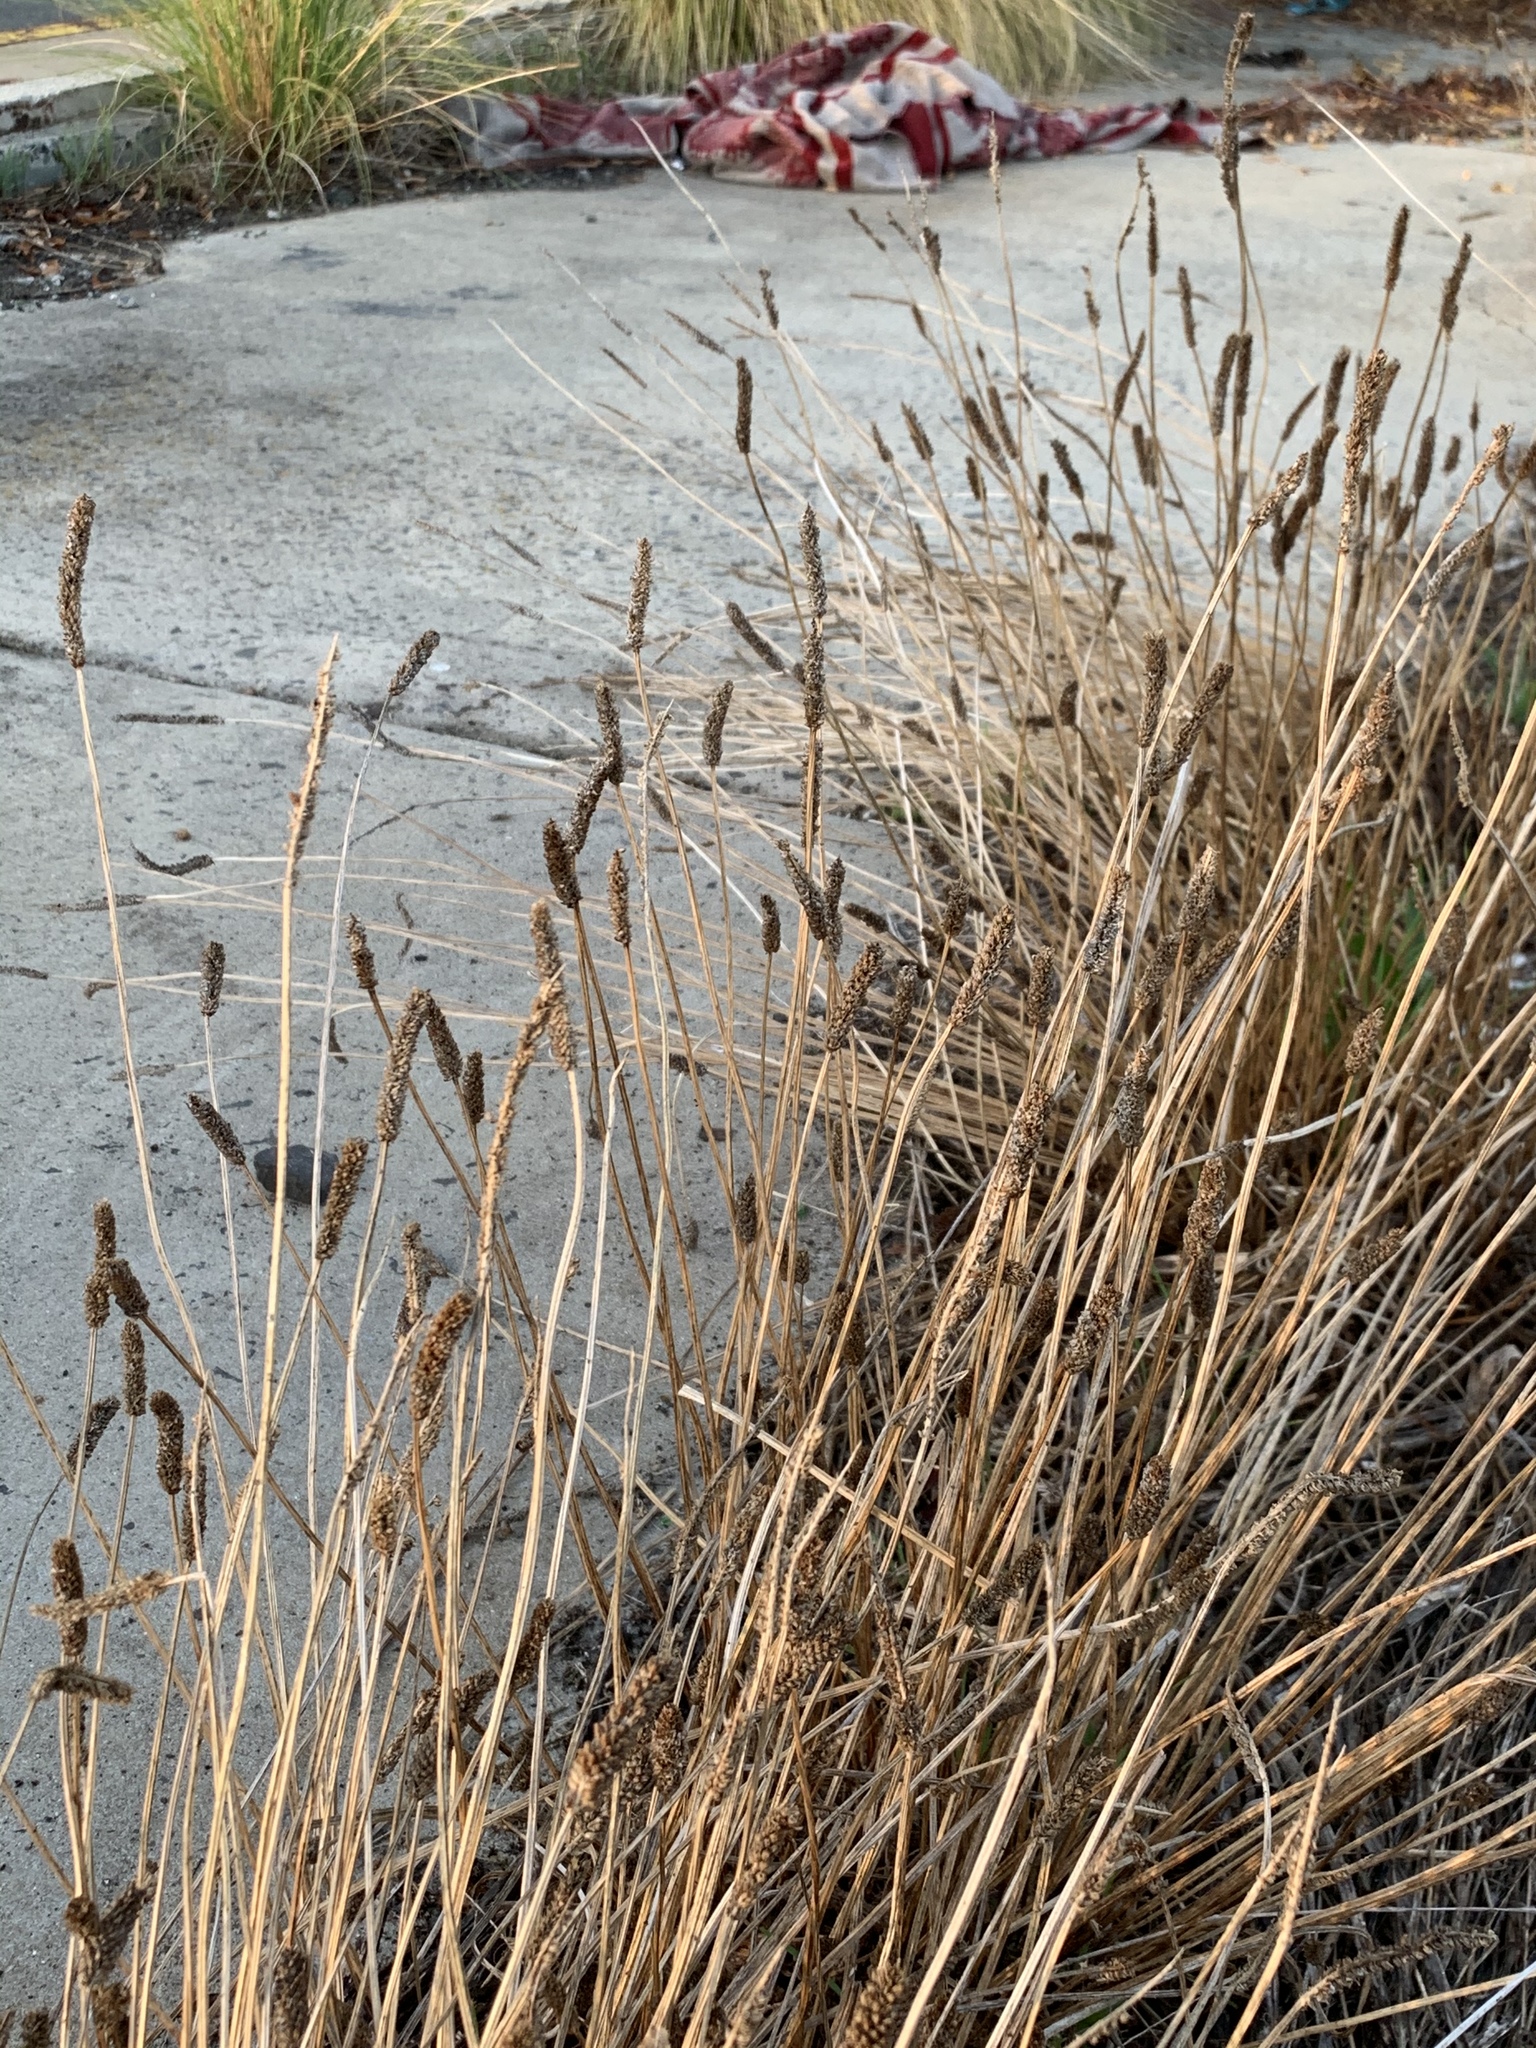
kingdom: Plantae
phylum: Tracheophyta
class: Magnoliopsida
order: Lamiales
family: Plantaginaceae
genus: Plantago
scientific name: Plantago lanceolata
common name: Ribwort plantain
